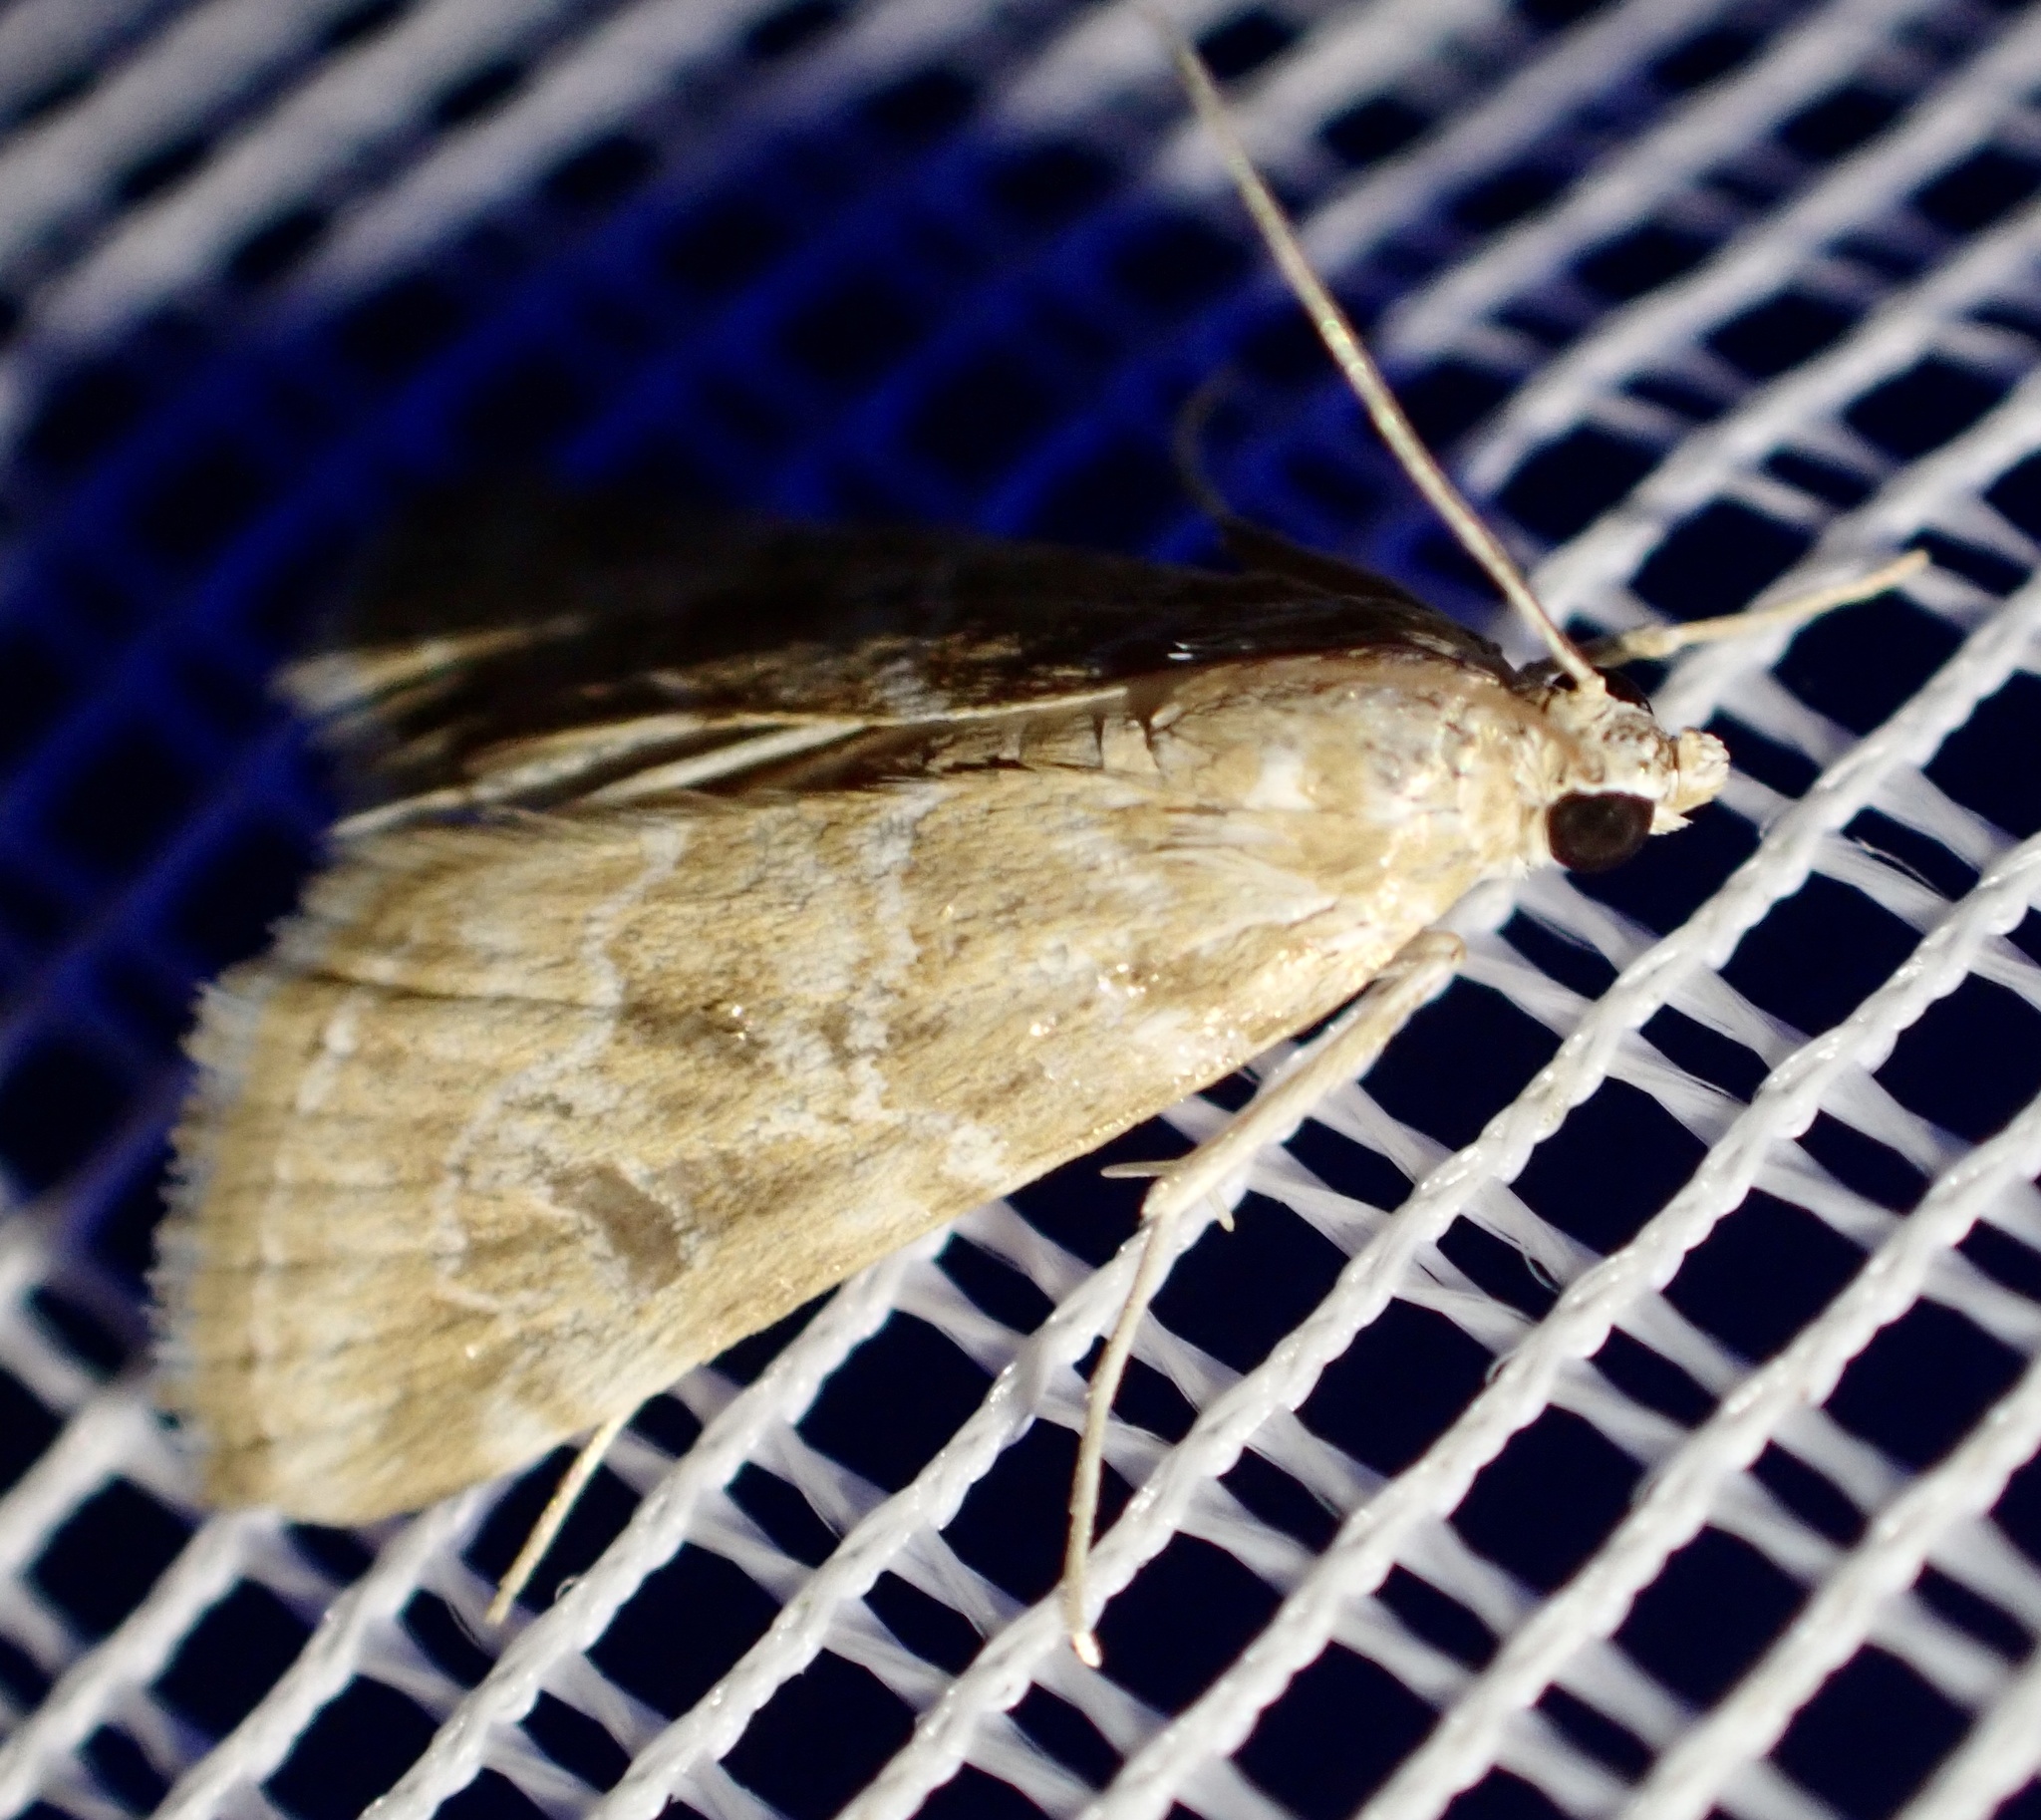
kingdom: Animalia
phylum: Arthropoda
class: Insecta
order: Lepidoptera
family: Crambidae
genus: Hellula
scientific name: Hellula undalis
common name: Cabbage webworm
